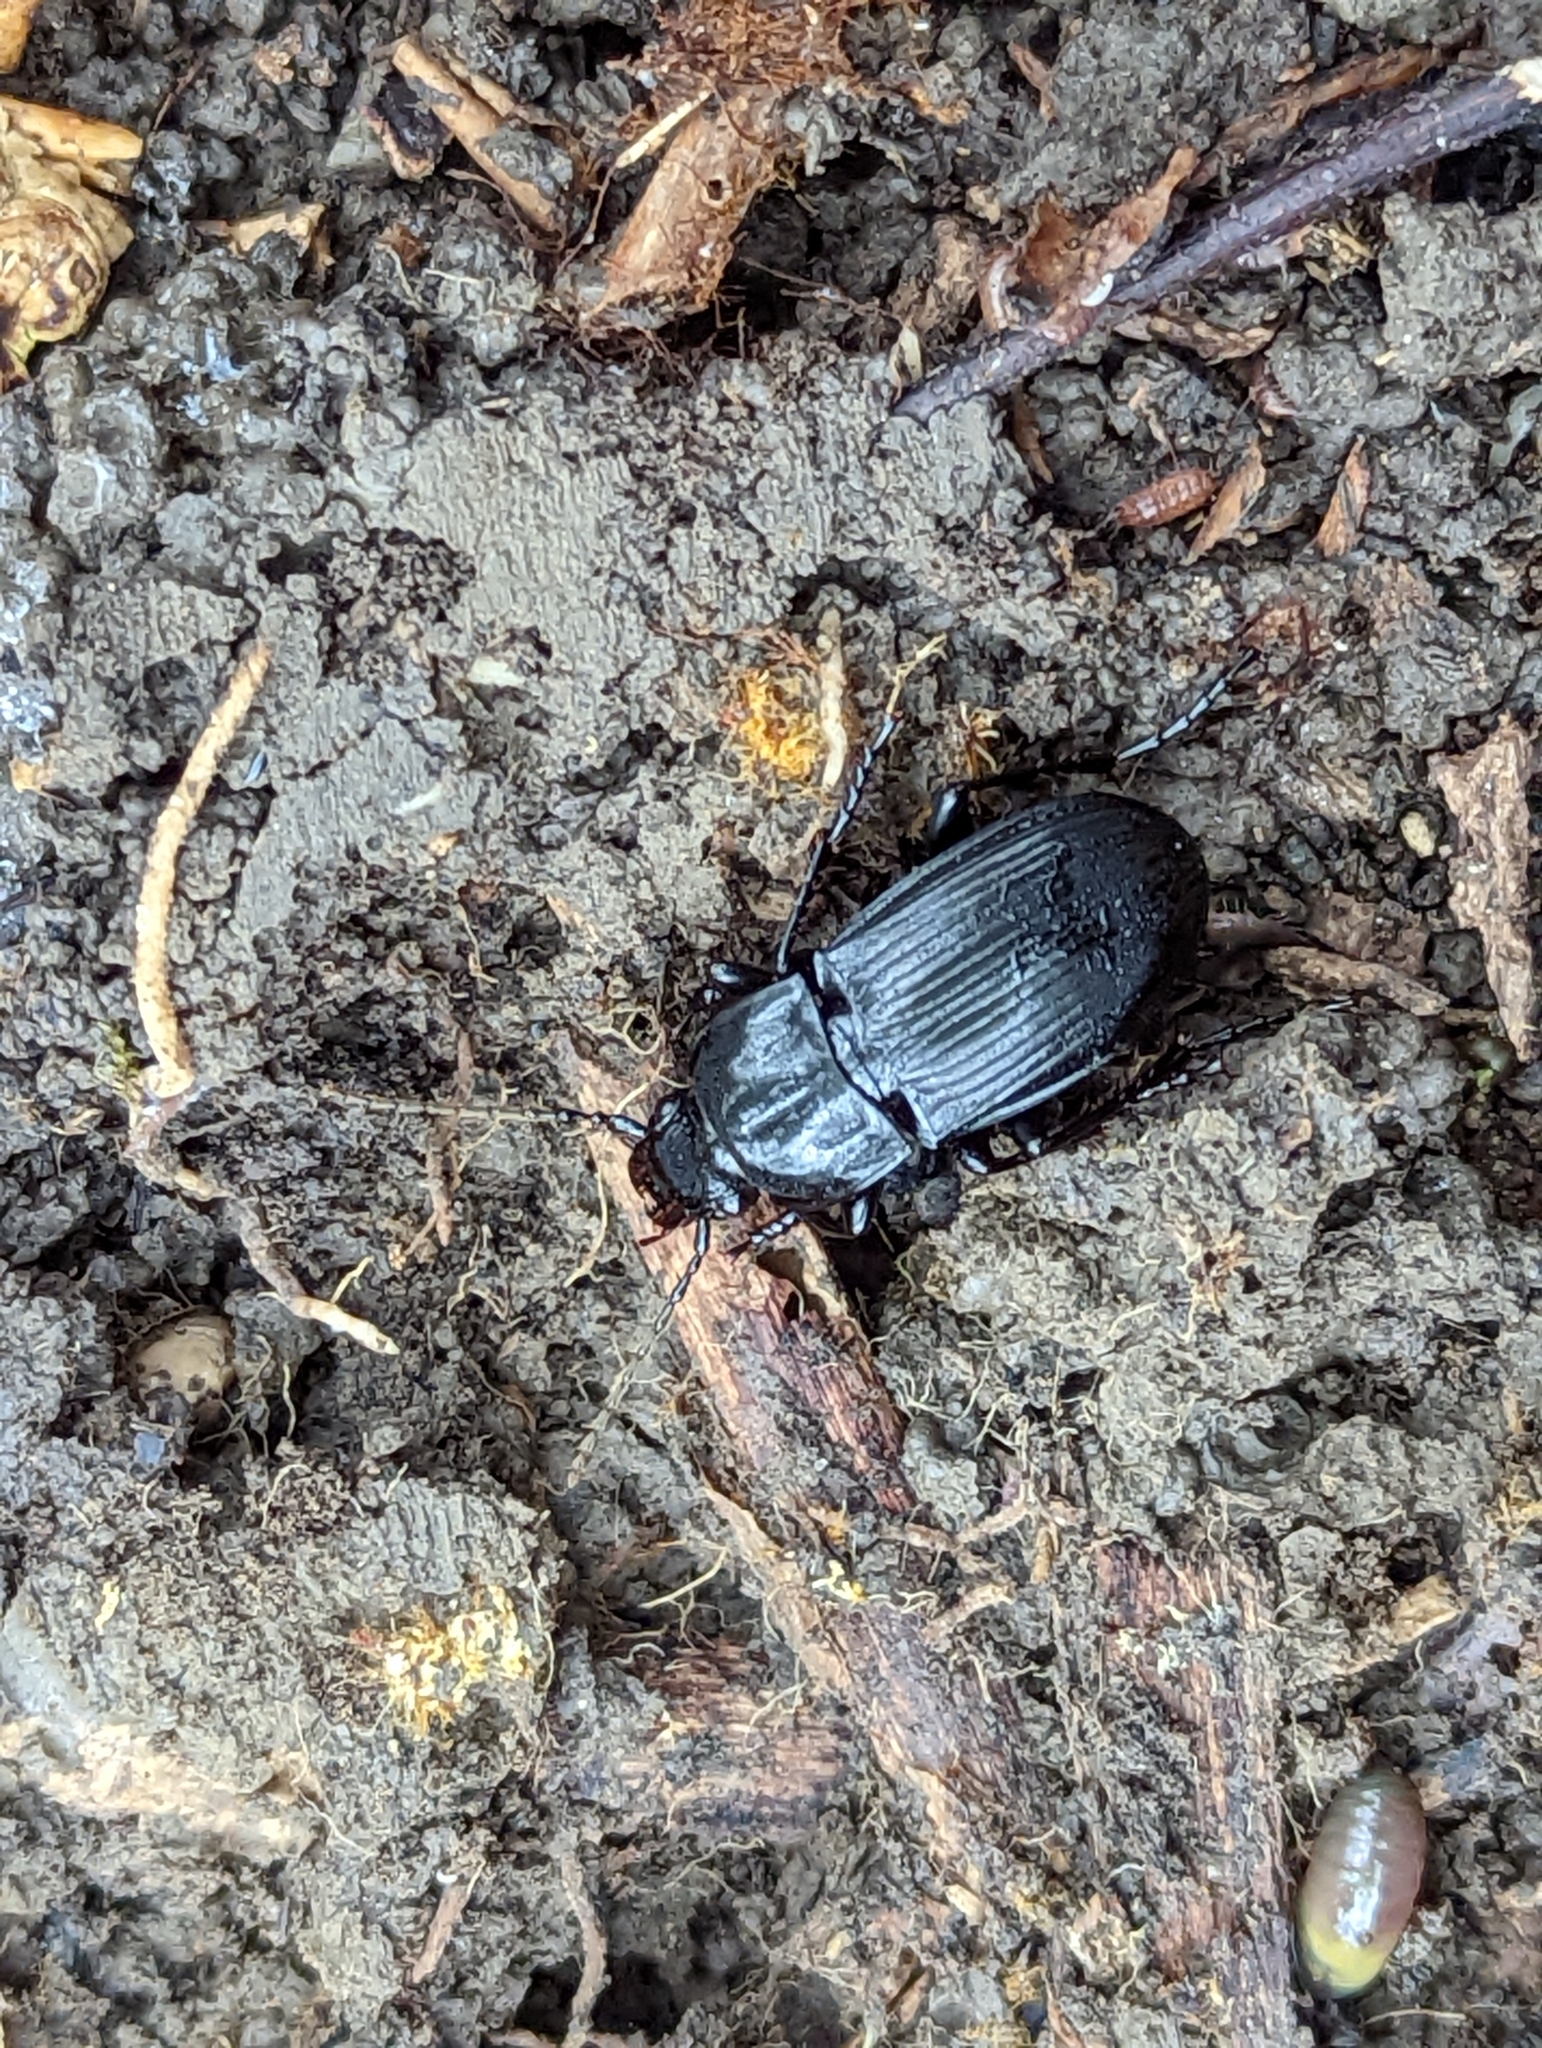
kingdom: Animalia
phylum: Arthropoda
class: Insecta
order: Coleoptera
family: Carabidae
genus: Abax
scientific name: Abax parallelepipedus
